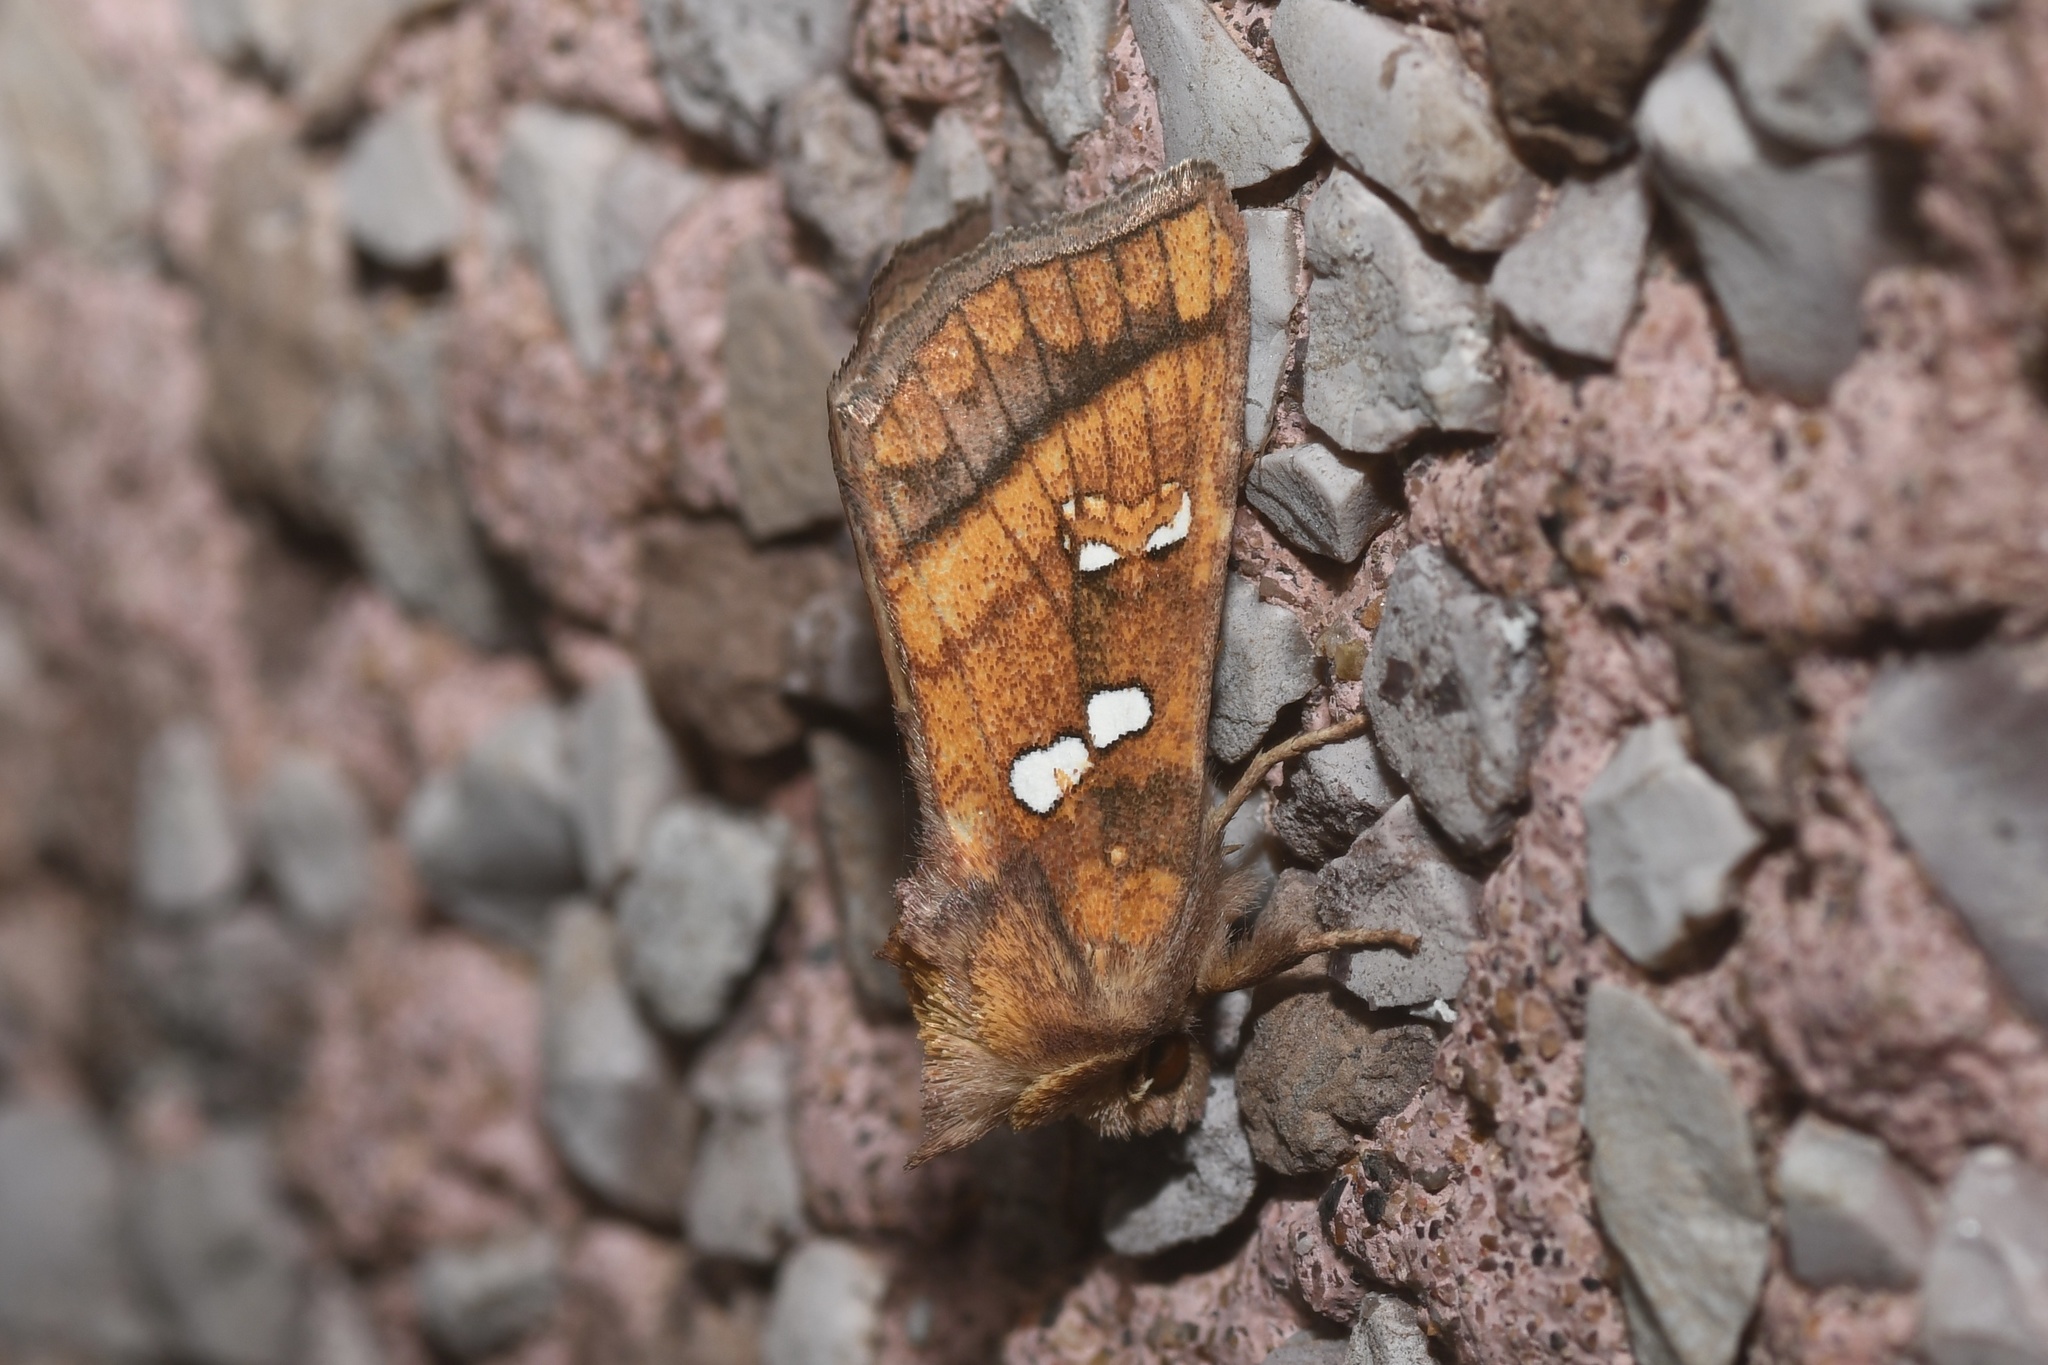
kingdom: Animalia
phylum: Arthropoda
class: Insecta
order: Lepidoptera
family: Noctuidae
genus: Papaipema
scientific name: Papaipema pterisii
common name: Bracken borer moth
